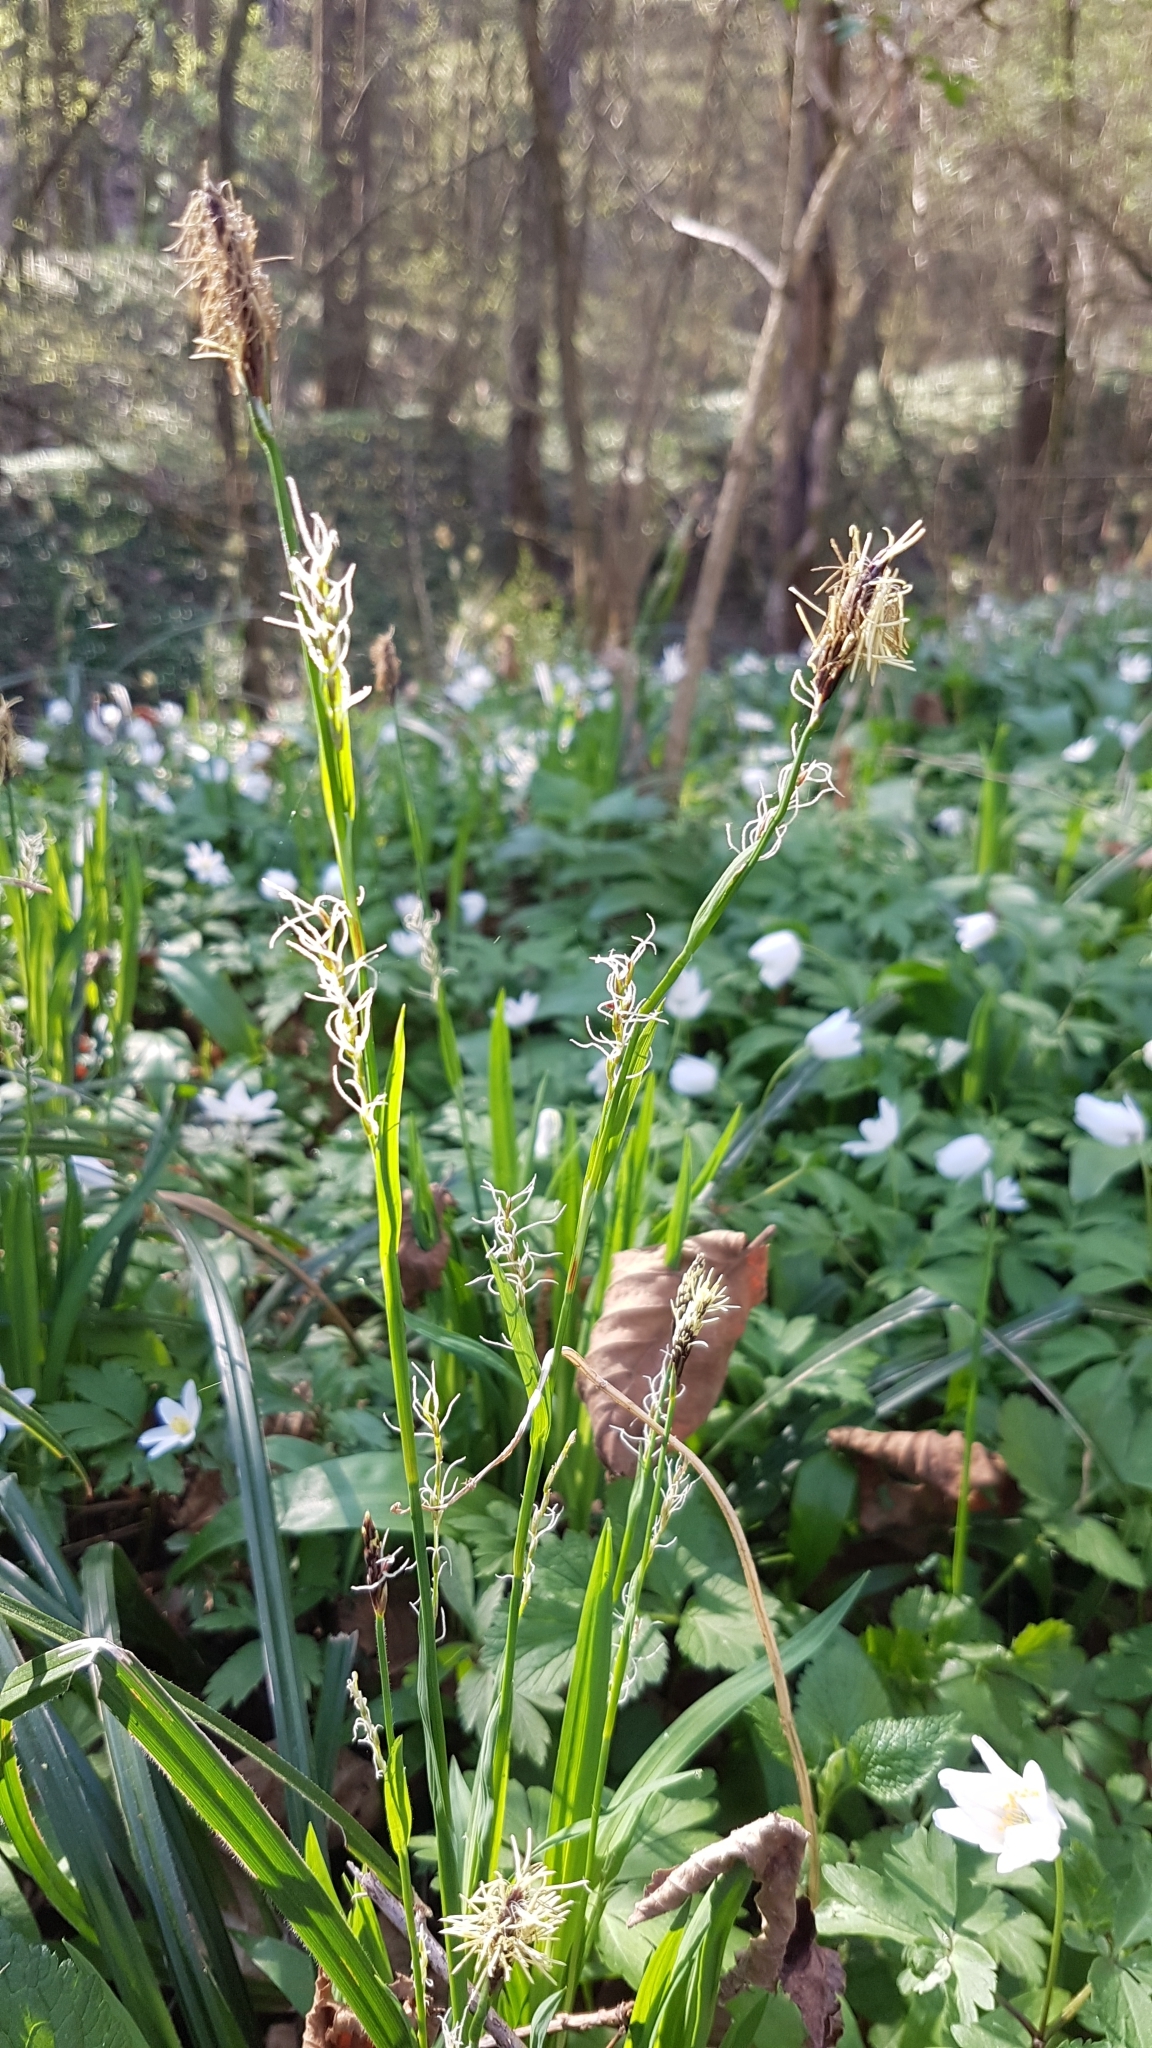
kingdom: Plantae
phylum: Tracheophyta
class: Liliopsida
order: Poales
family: Cyperaceae
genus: Carex
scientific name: Carex pilosa
